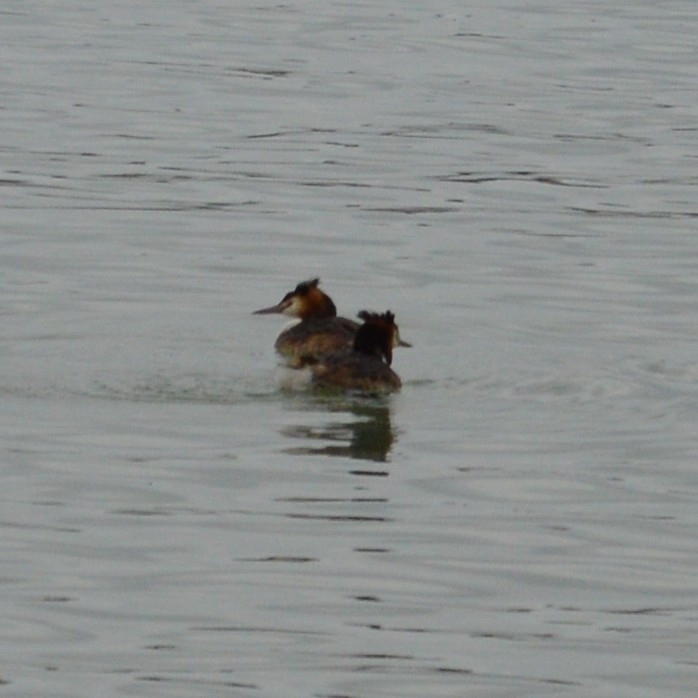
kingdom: Animalia
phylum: Chordata
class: Aves
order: Podicipediformes
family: Podicipedidae
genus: Podiceps
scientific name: Podiceps cristatus
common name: Great crested grebe
